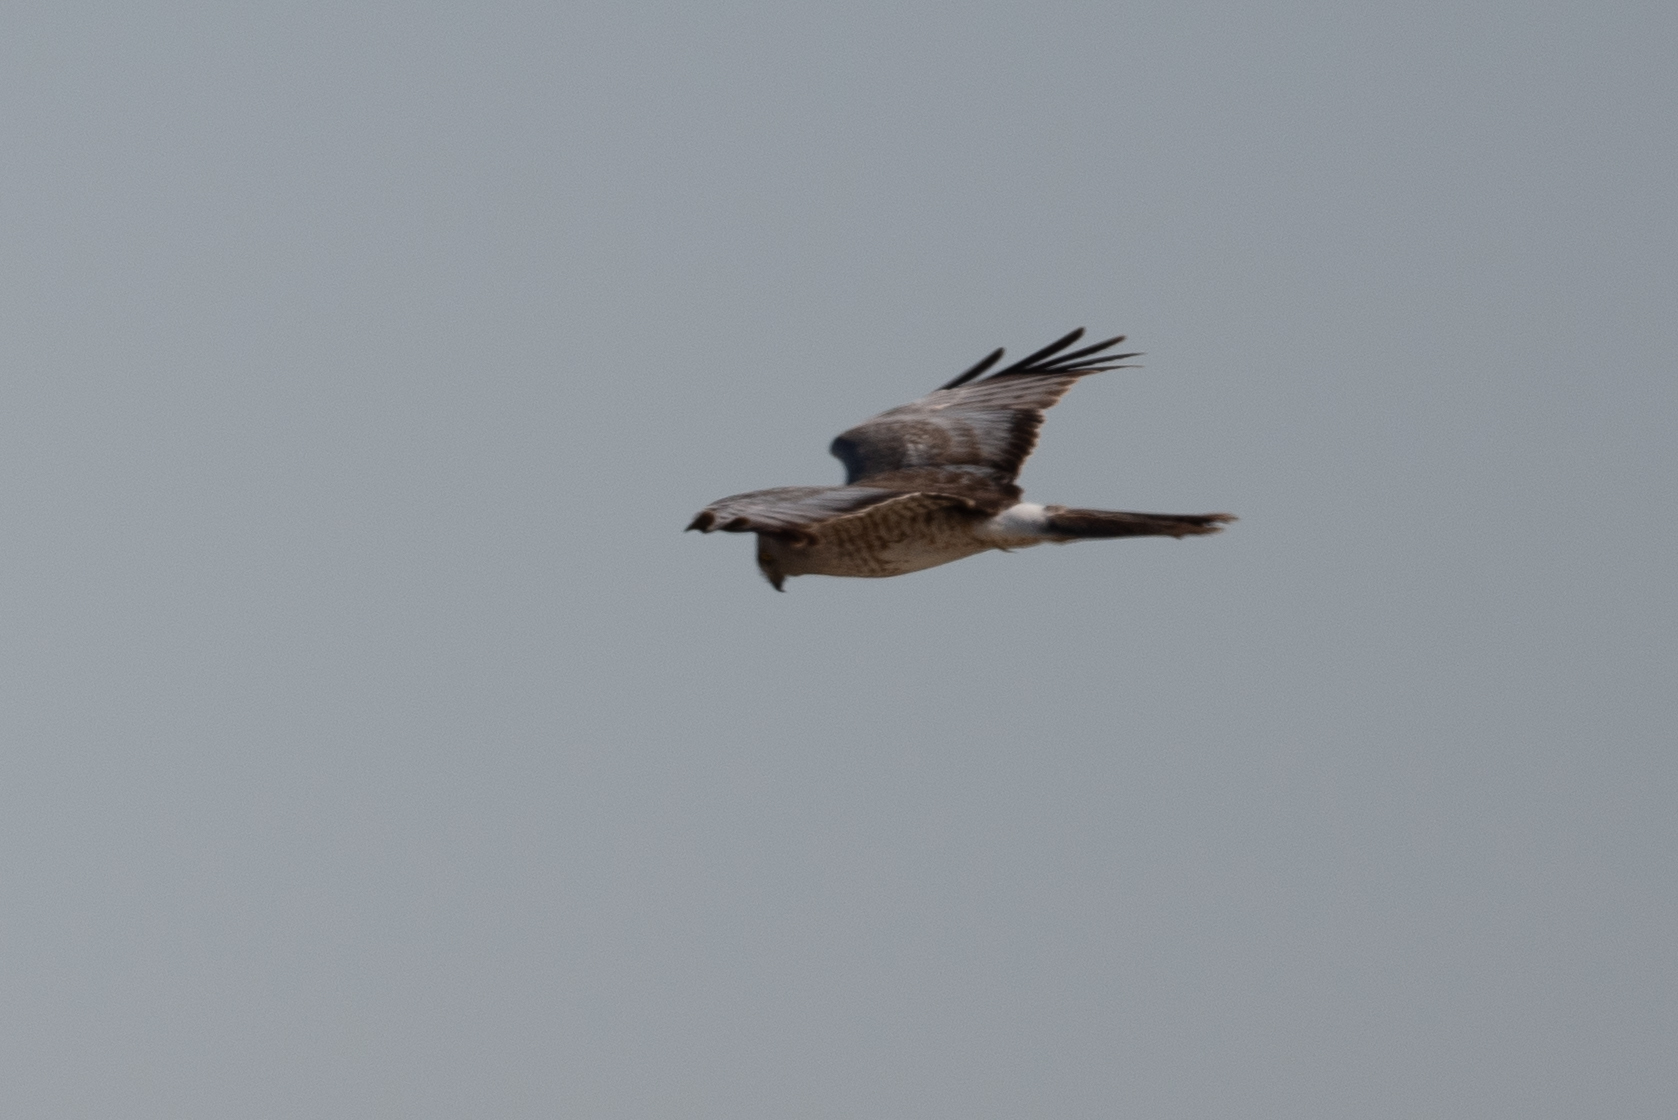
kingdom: Animalia
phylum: Chordata
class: Aves
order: Accipitriformes
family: Accipitridae
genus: Circus
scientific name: Circus cyaneus
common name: Hen harrier
